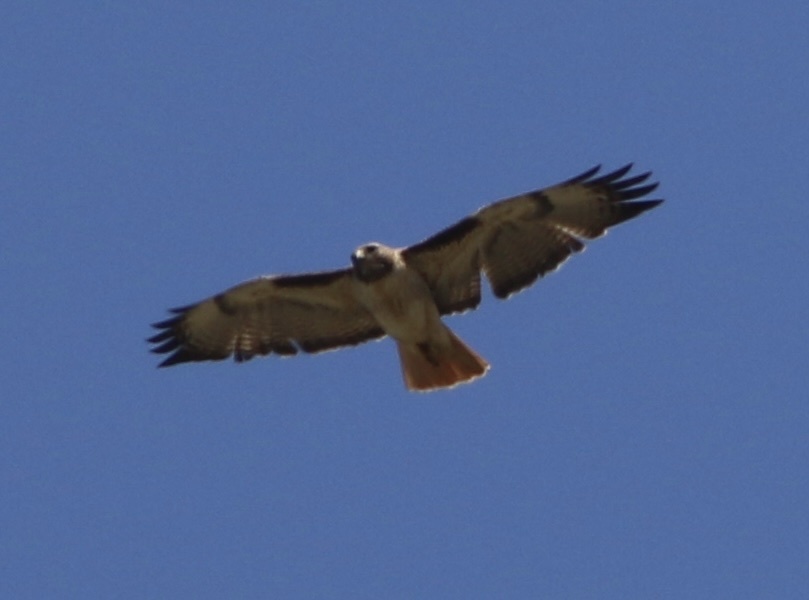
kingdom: Animalia
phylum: Chordata
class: Aves
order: Accipitriformes
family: Accipitridae
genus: Buteo
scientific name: Buteo jamaicensis
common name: Red-tailed hawk
